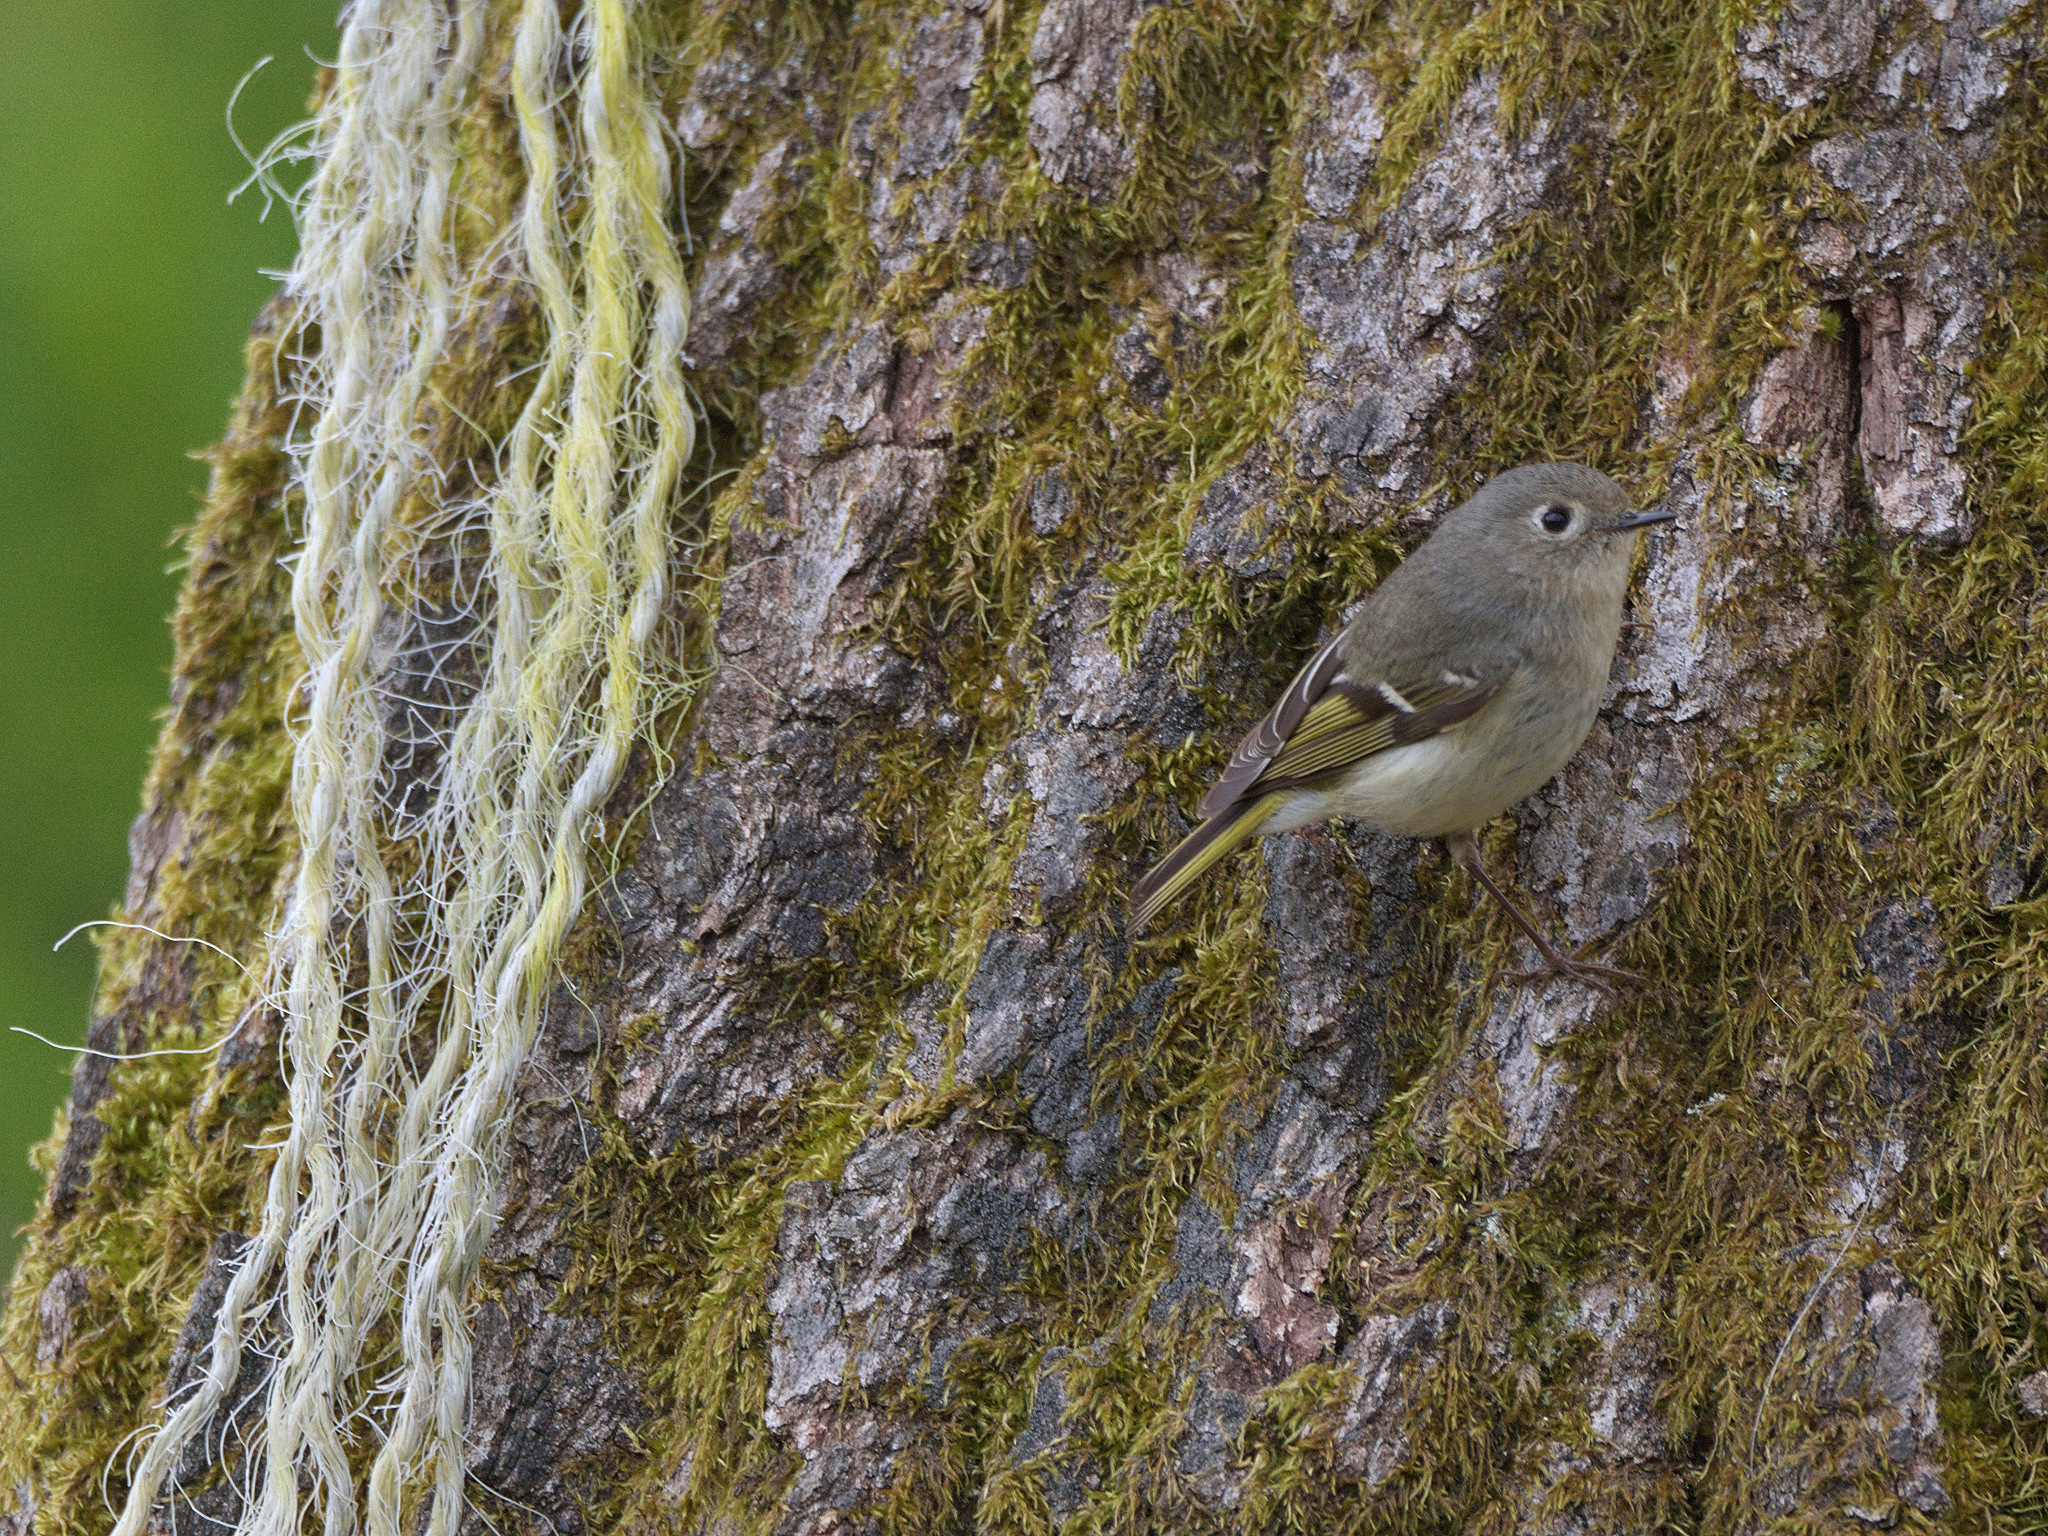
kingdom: Animalia
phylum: Chordata
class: Aves
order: Passeriformes
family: Regulidae
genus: Regulus
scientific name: Regulus calendula
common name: Ruby-crowned kinglet
